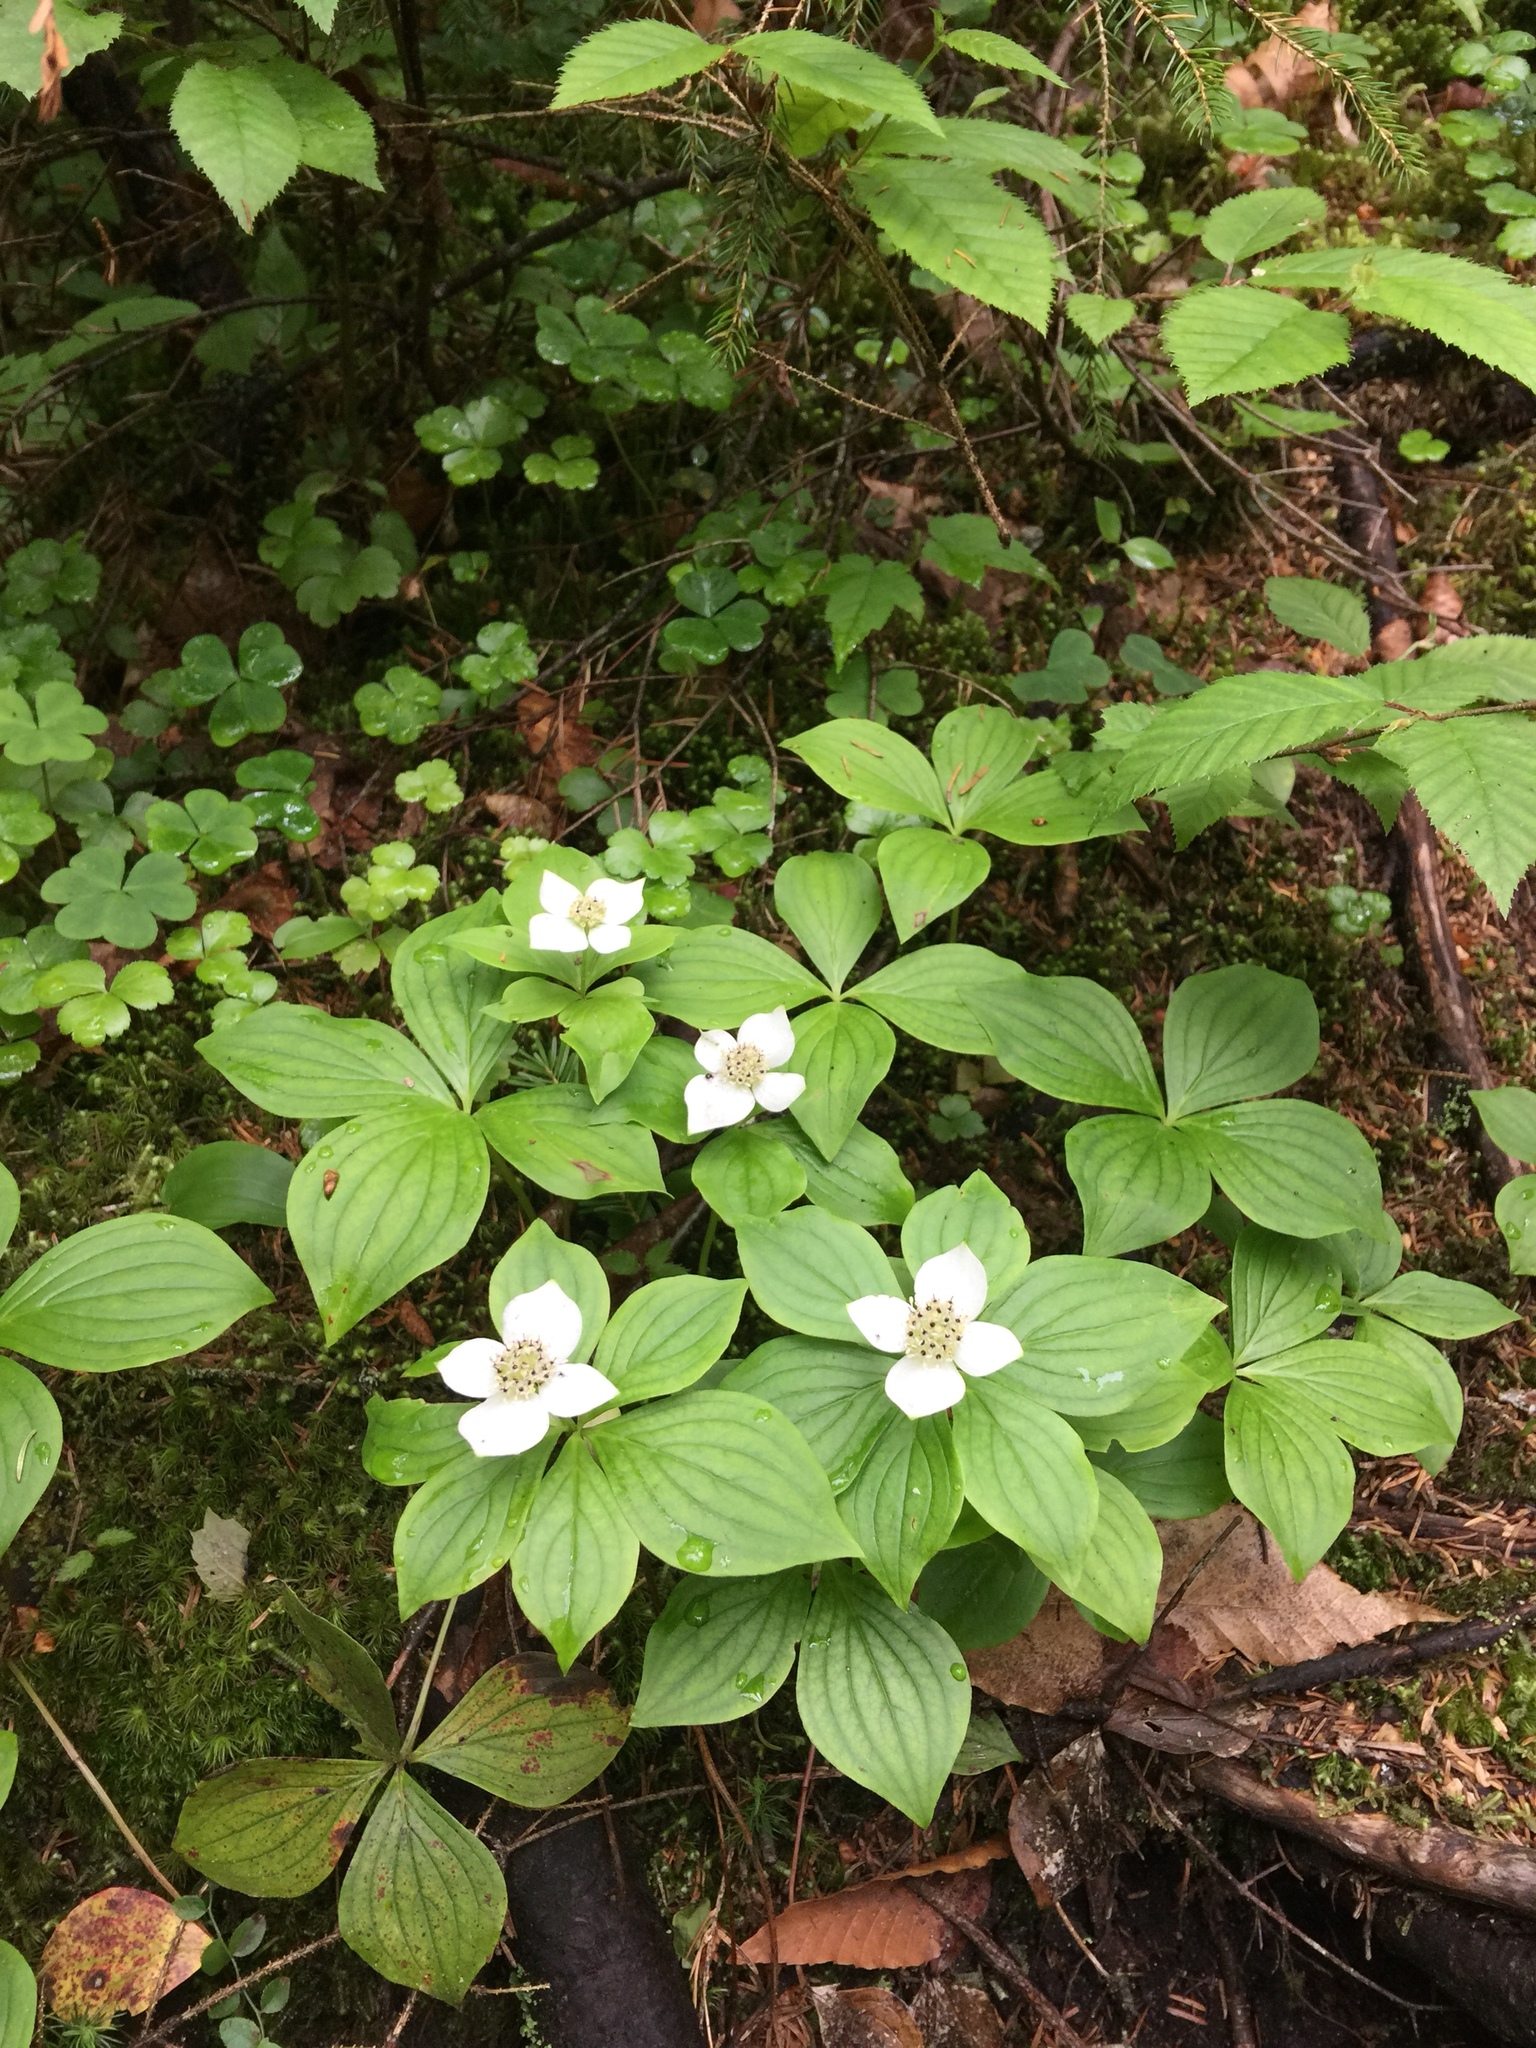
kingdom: Plantae
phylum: Tracheophyta
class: Magnoliopsida
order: Cornales
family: Cornaceae
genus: Cornus
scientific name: Cornus canadensis
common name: Creeping dogwood
